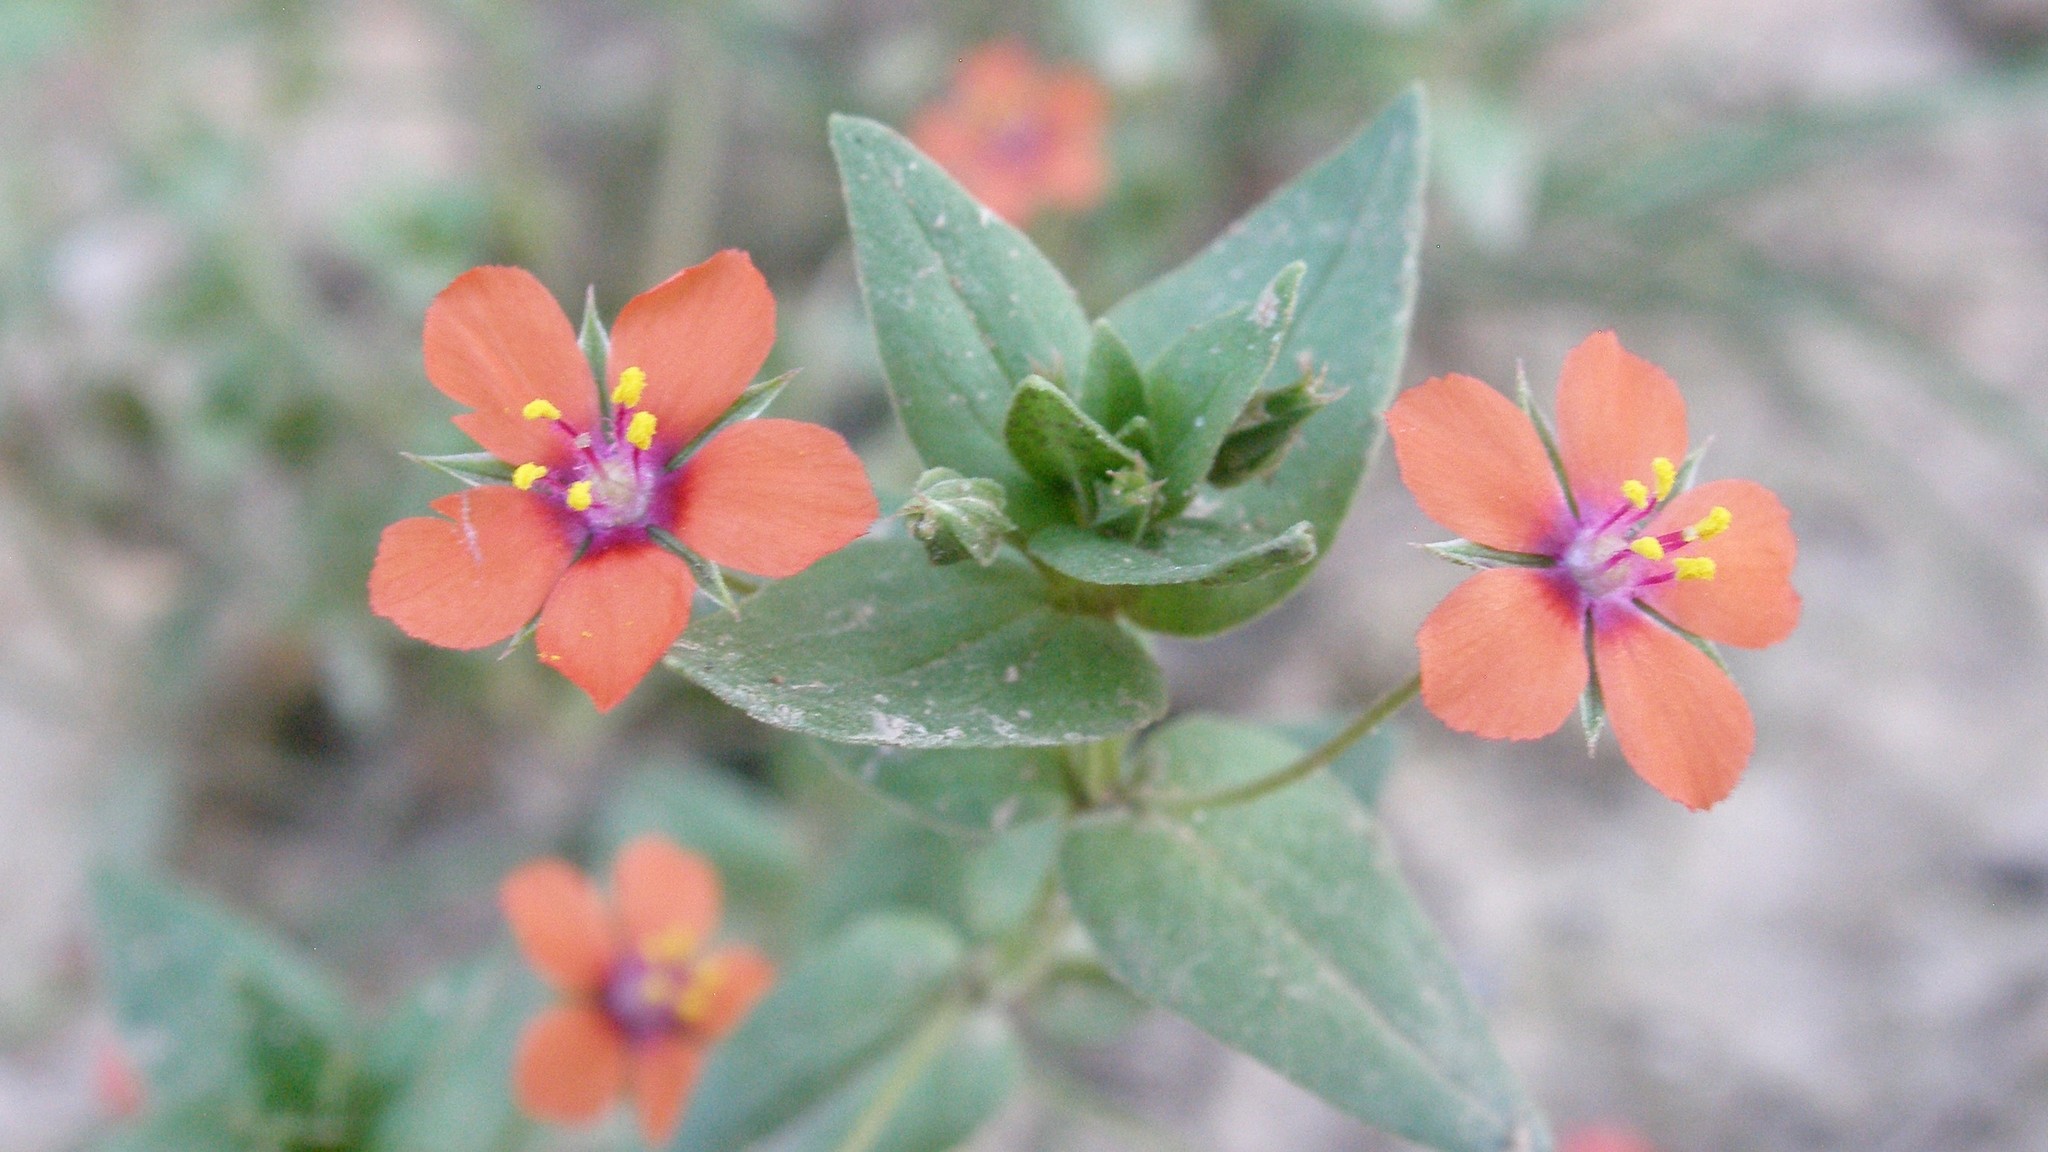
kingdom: Plantae
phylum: Tracheophyta
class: Magnoliopsida
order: Ericales
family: Primulaceae
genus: Lysimachia
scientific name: Lysimachia arvensis
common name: Scarlet pimpernel
